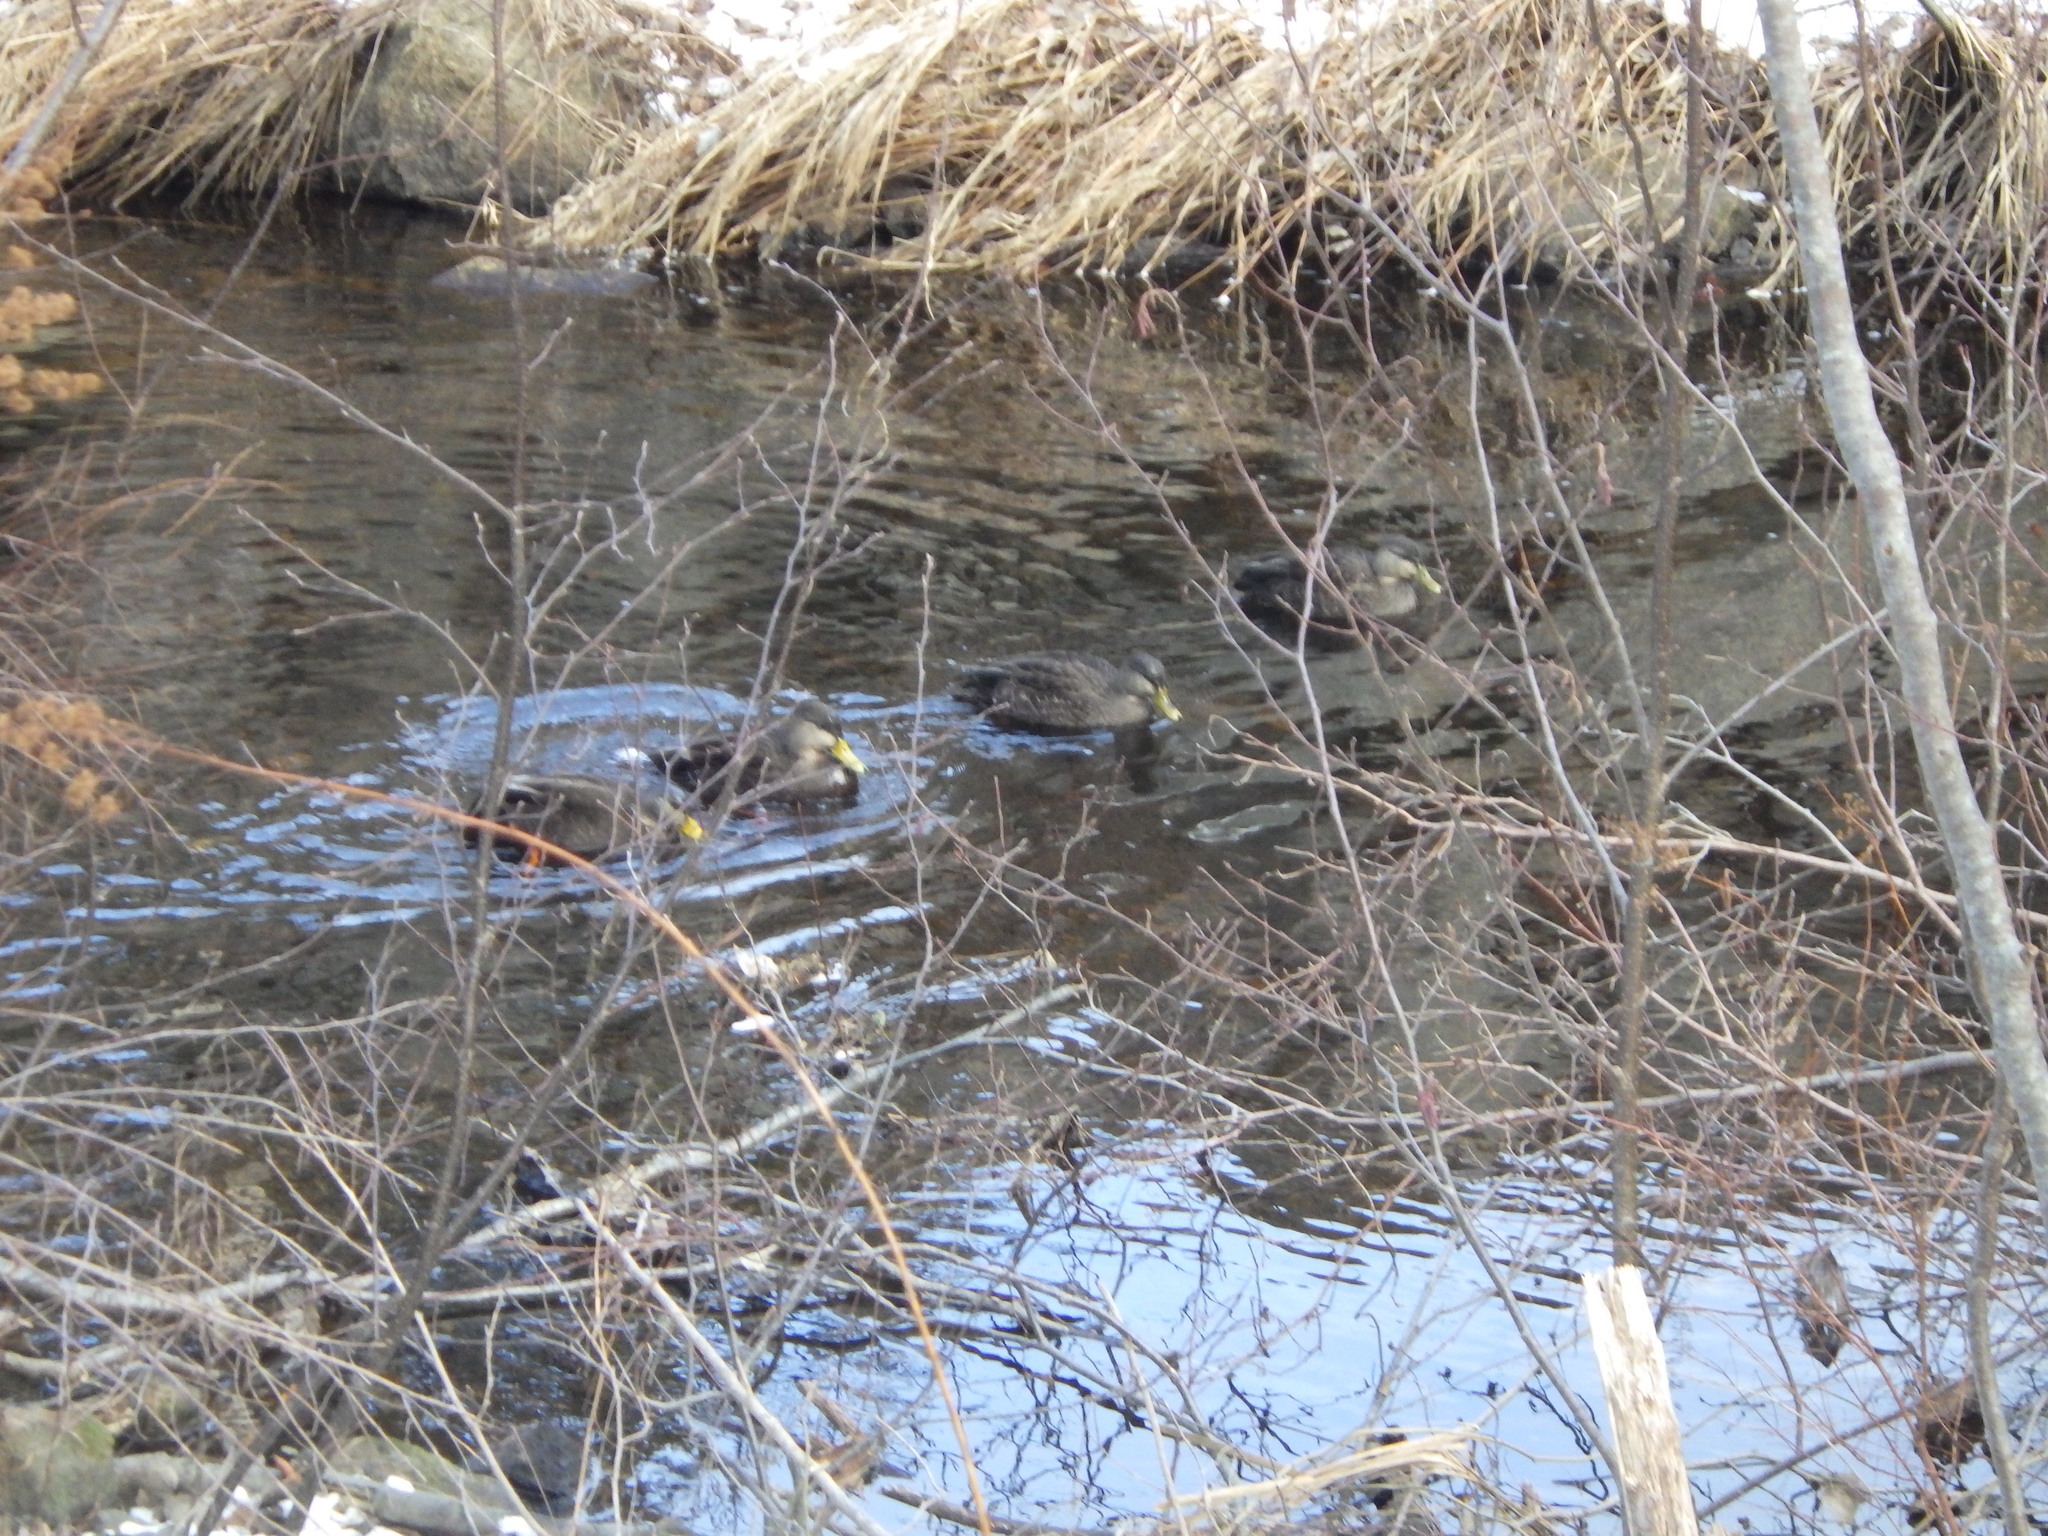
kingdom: Animalia
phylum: Chordata
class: Aves
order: Anseriformes
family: Anatidae
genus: Anas
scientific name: Anas rubripes
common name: American black duck
